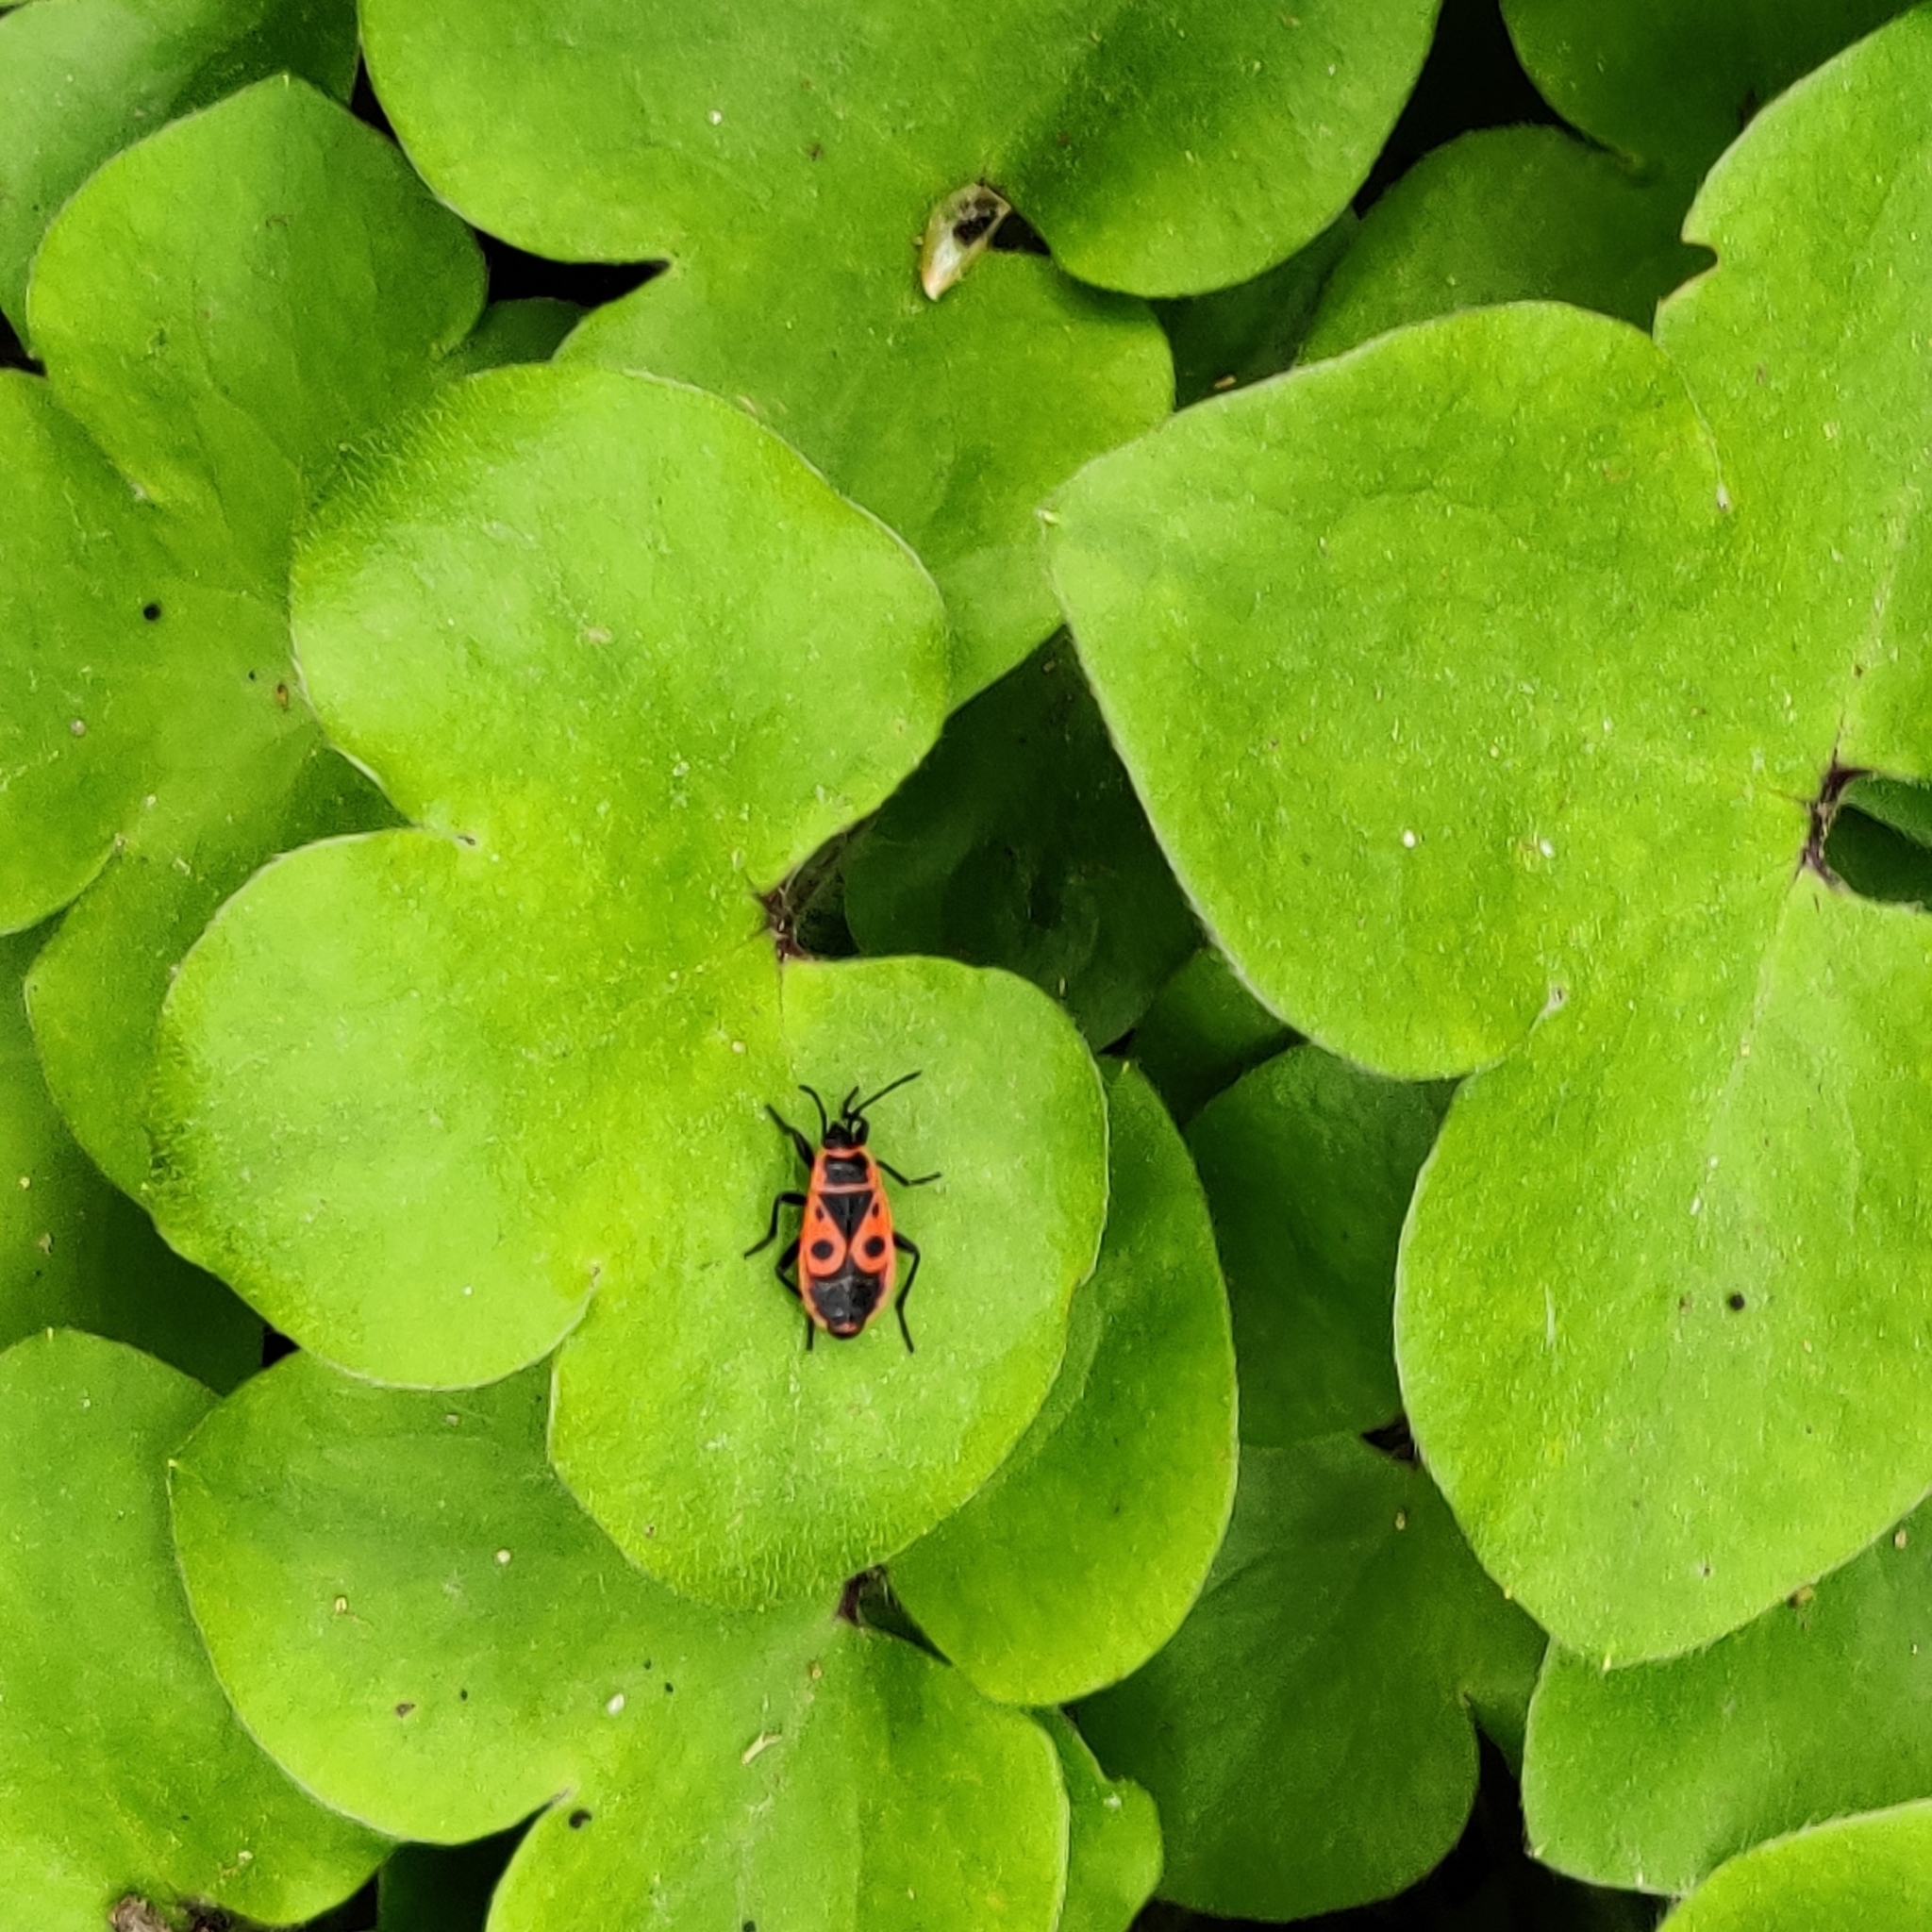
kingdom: Animalia
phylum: Arthropoda
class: Insecta
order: Hemiptera
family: Pyrrhocoridae
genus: Pyrrhocoris
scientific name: Pyrrhocoris apterus
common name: Firebug
